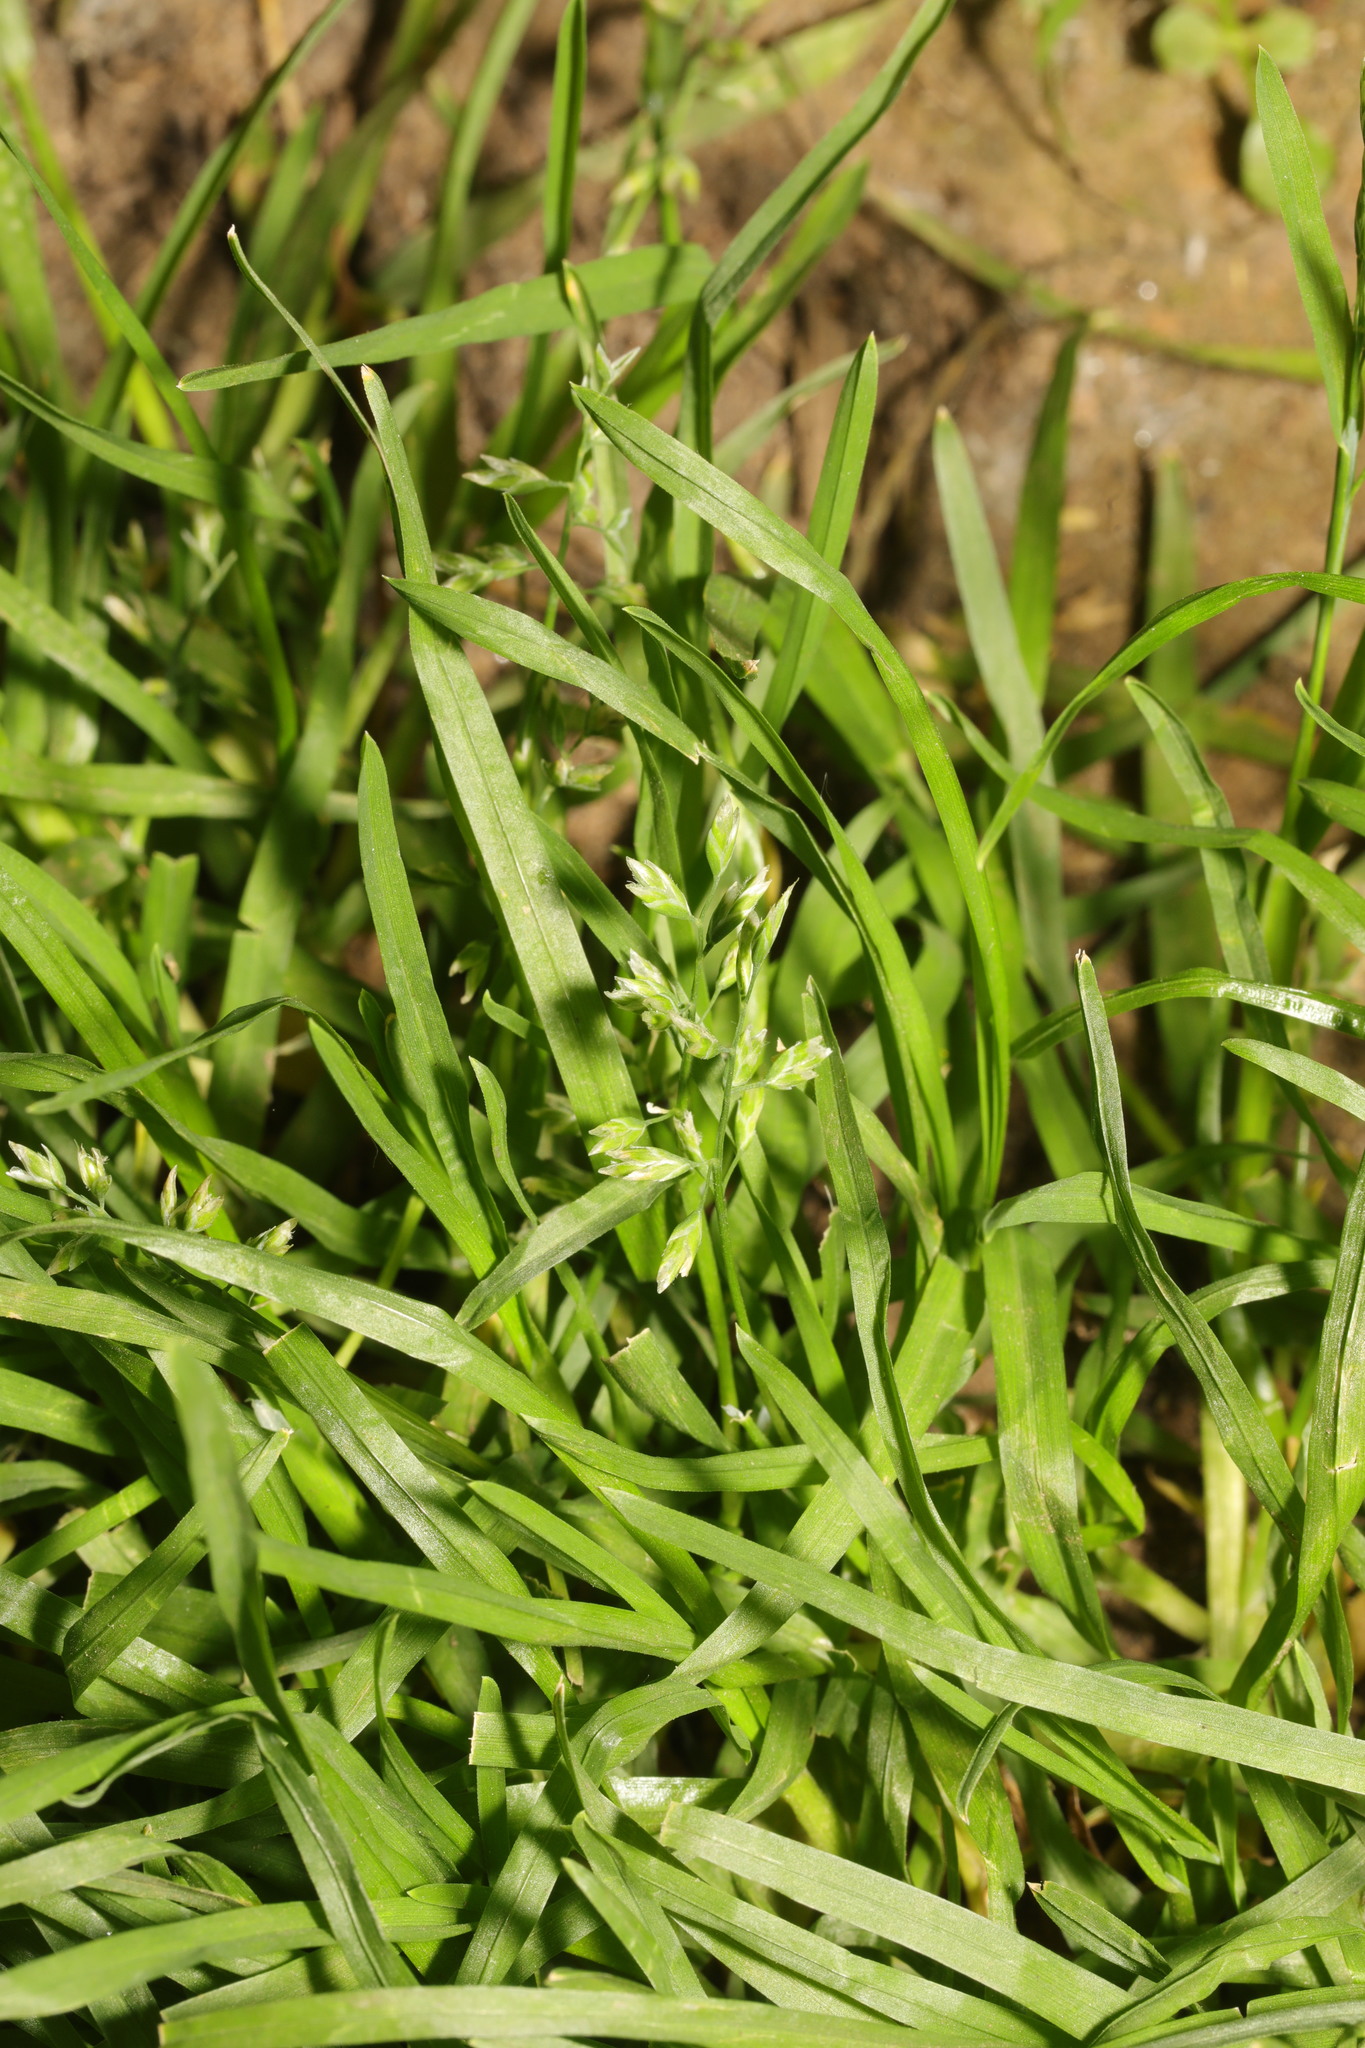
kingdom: Plantae
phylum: Tracheophyta
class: Liliopsida
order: Poales
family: Poaceae
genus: Poa
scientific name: Poa annua
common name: Annual bluegrass
